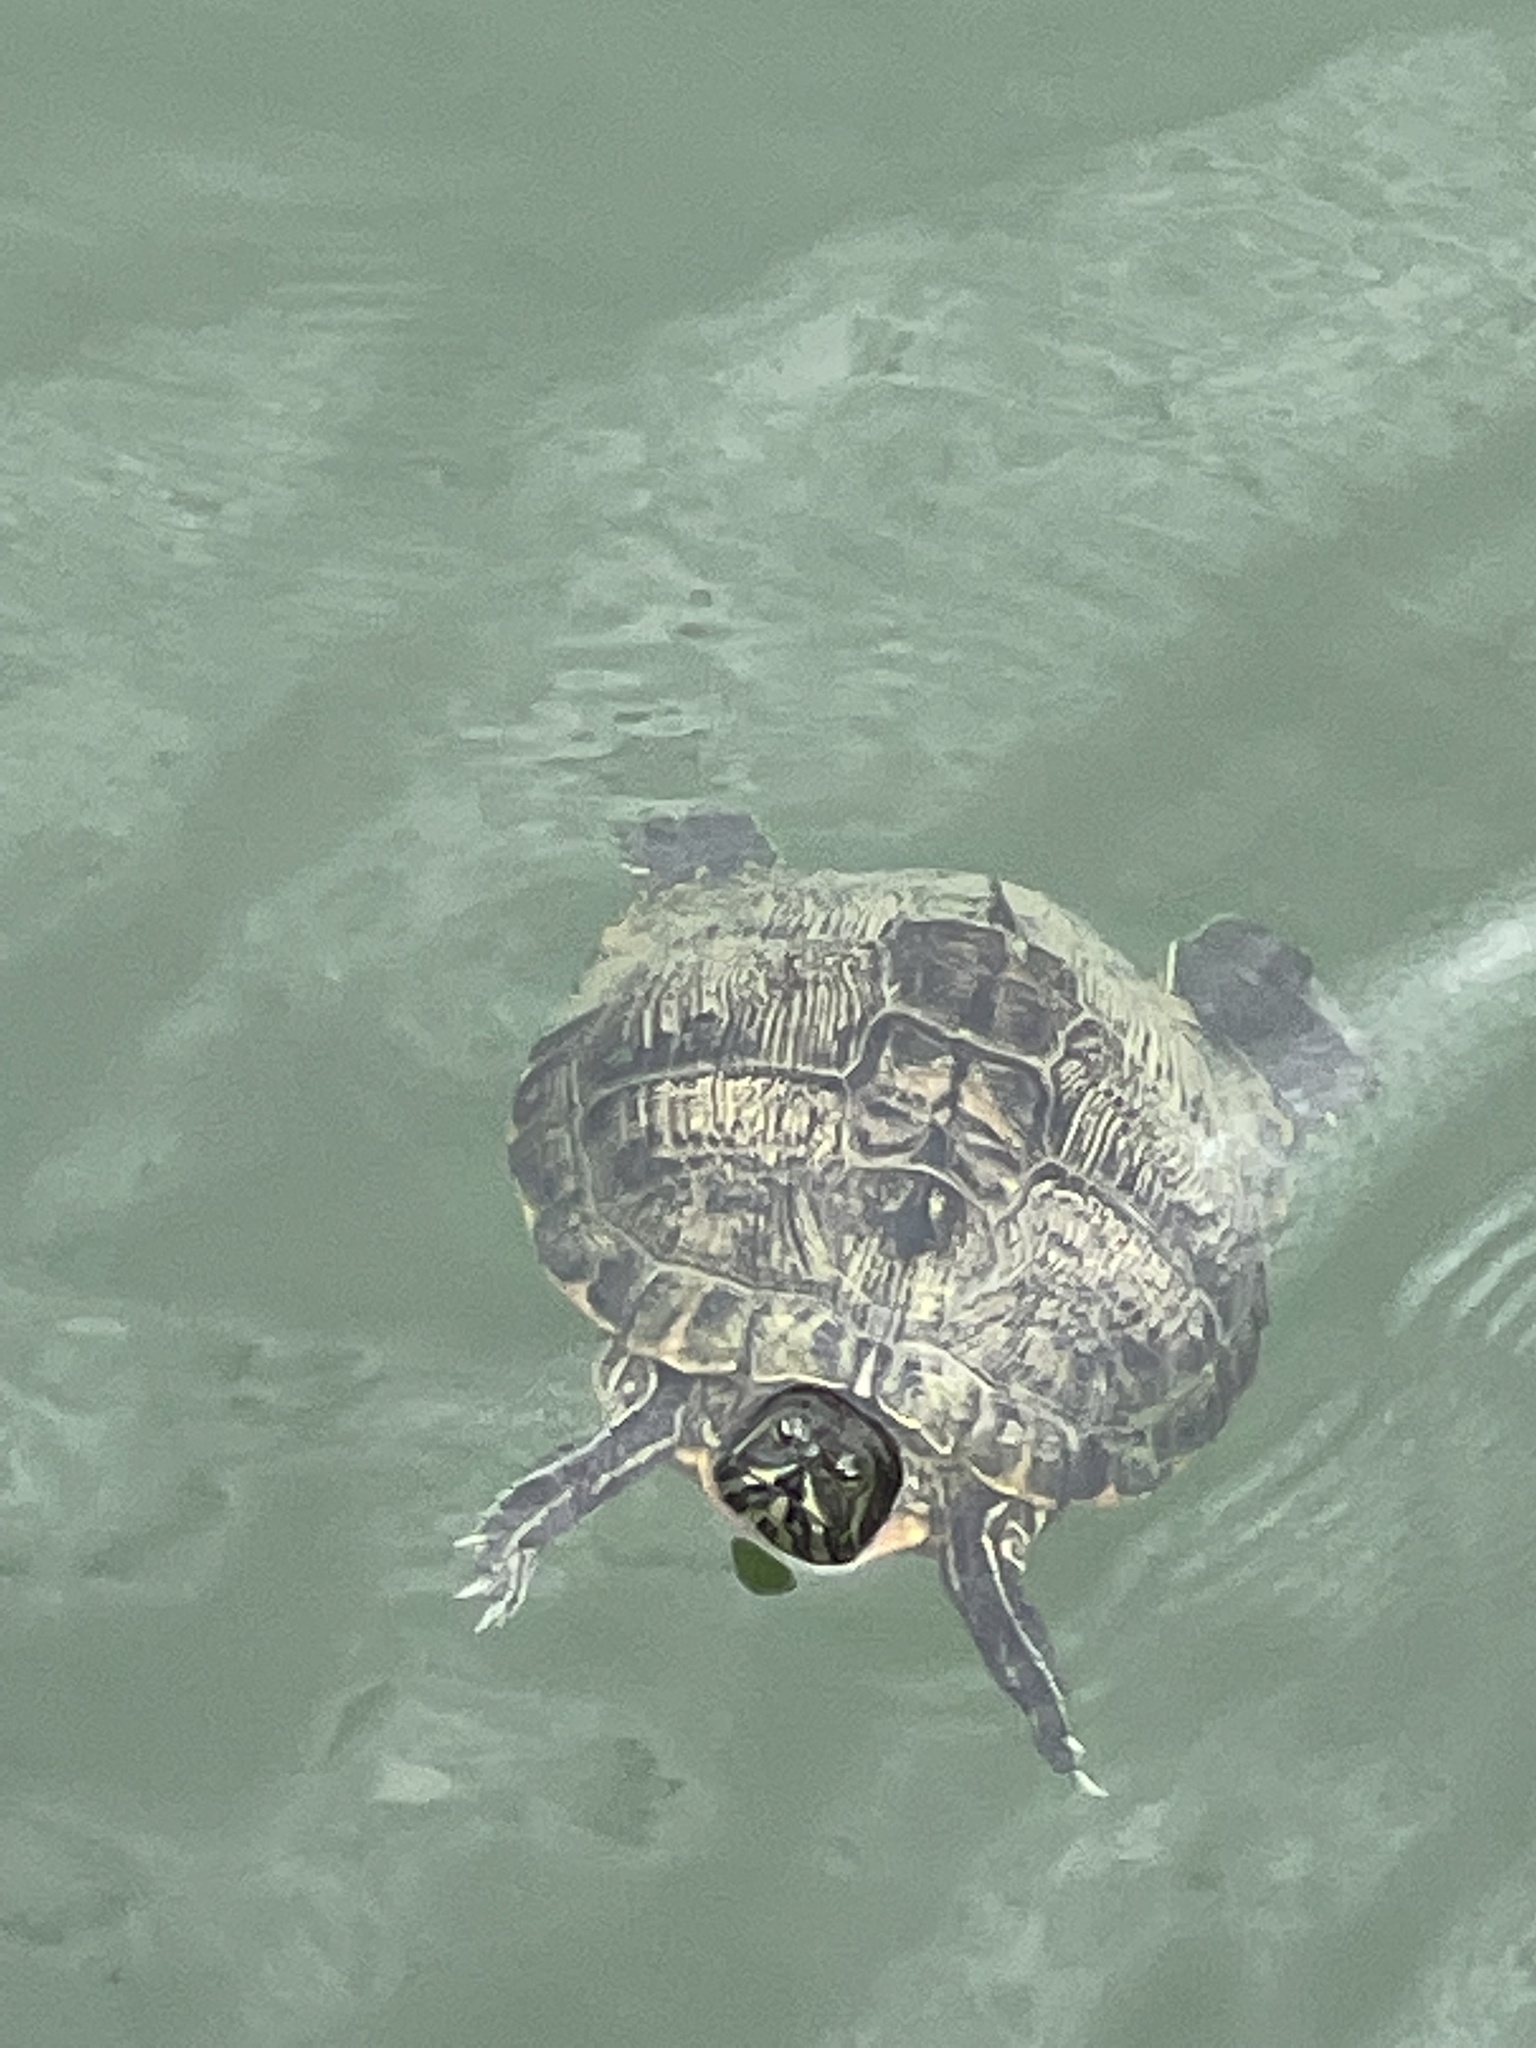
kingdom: Animalia
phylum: Chordata
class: Testudines
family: Emydidae
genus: Trachemys
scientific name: Trachemys scripta
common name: Slider
